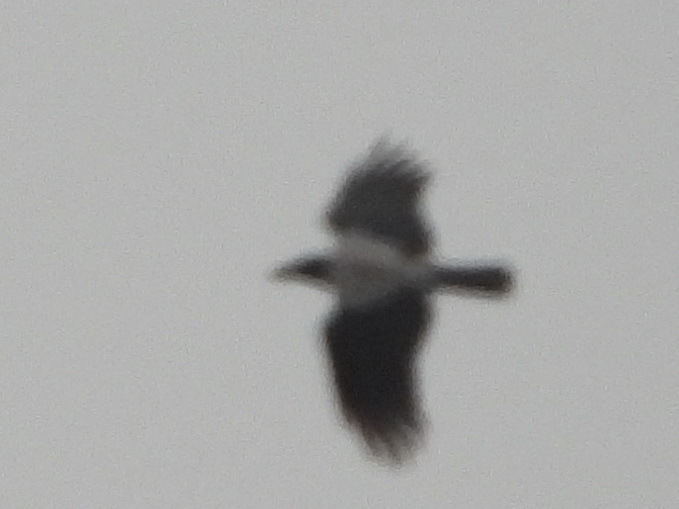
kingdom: Animalia
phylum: Chordata
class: Aves
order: Passeriformes
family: Corvidae
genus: Corvus
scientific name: Corvus cornix
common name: Hooded crow
